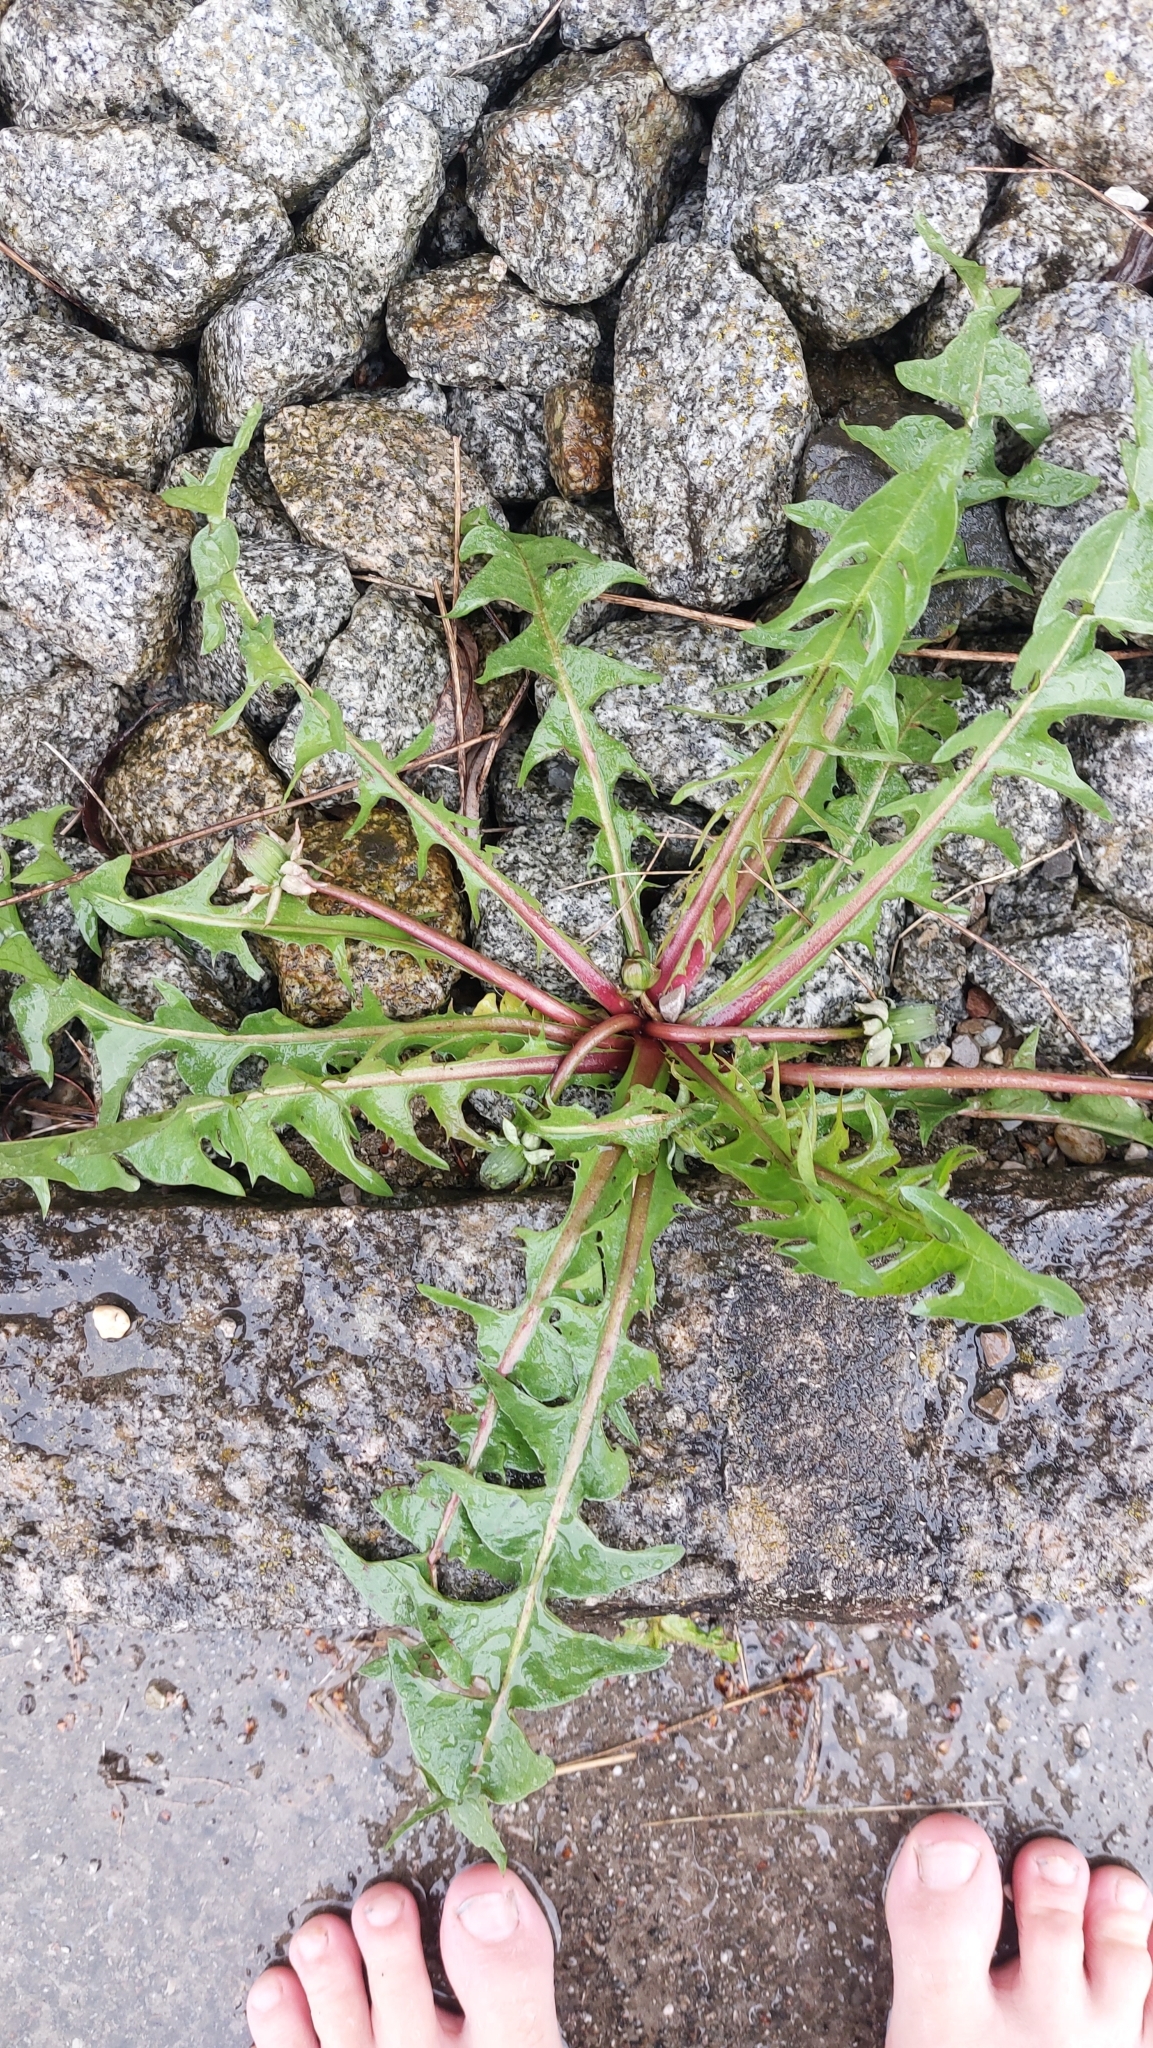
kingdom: Plantae
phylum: Tracheophyta
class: Magnoliopsida
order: Asterales
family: Asteraceae
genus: Taraxacum
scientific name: Taraxacum
